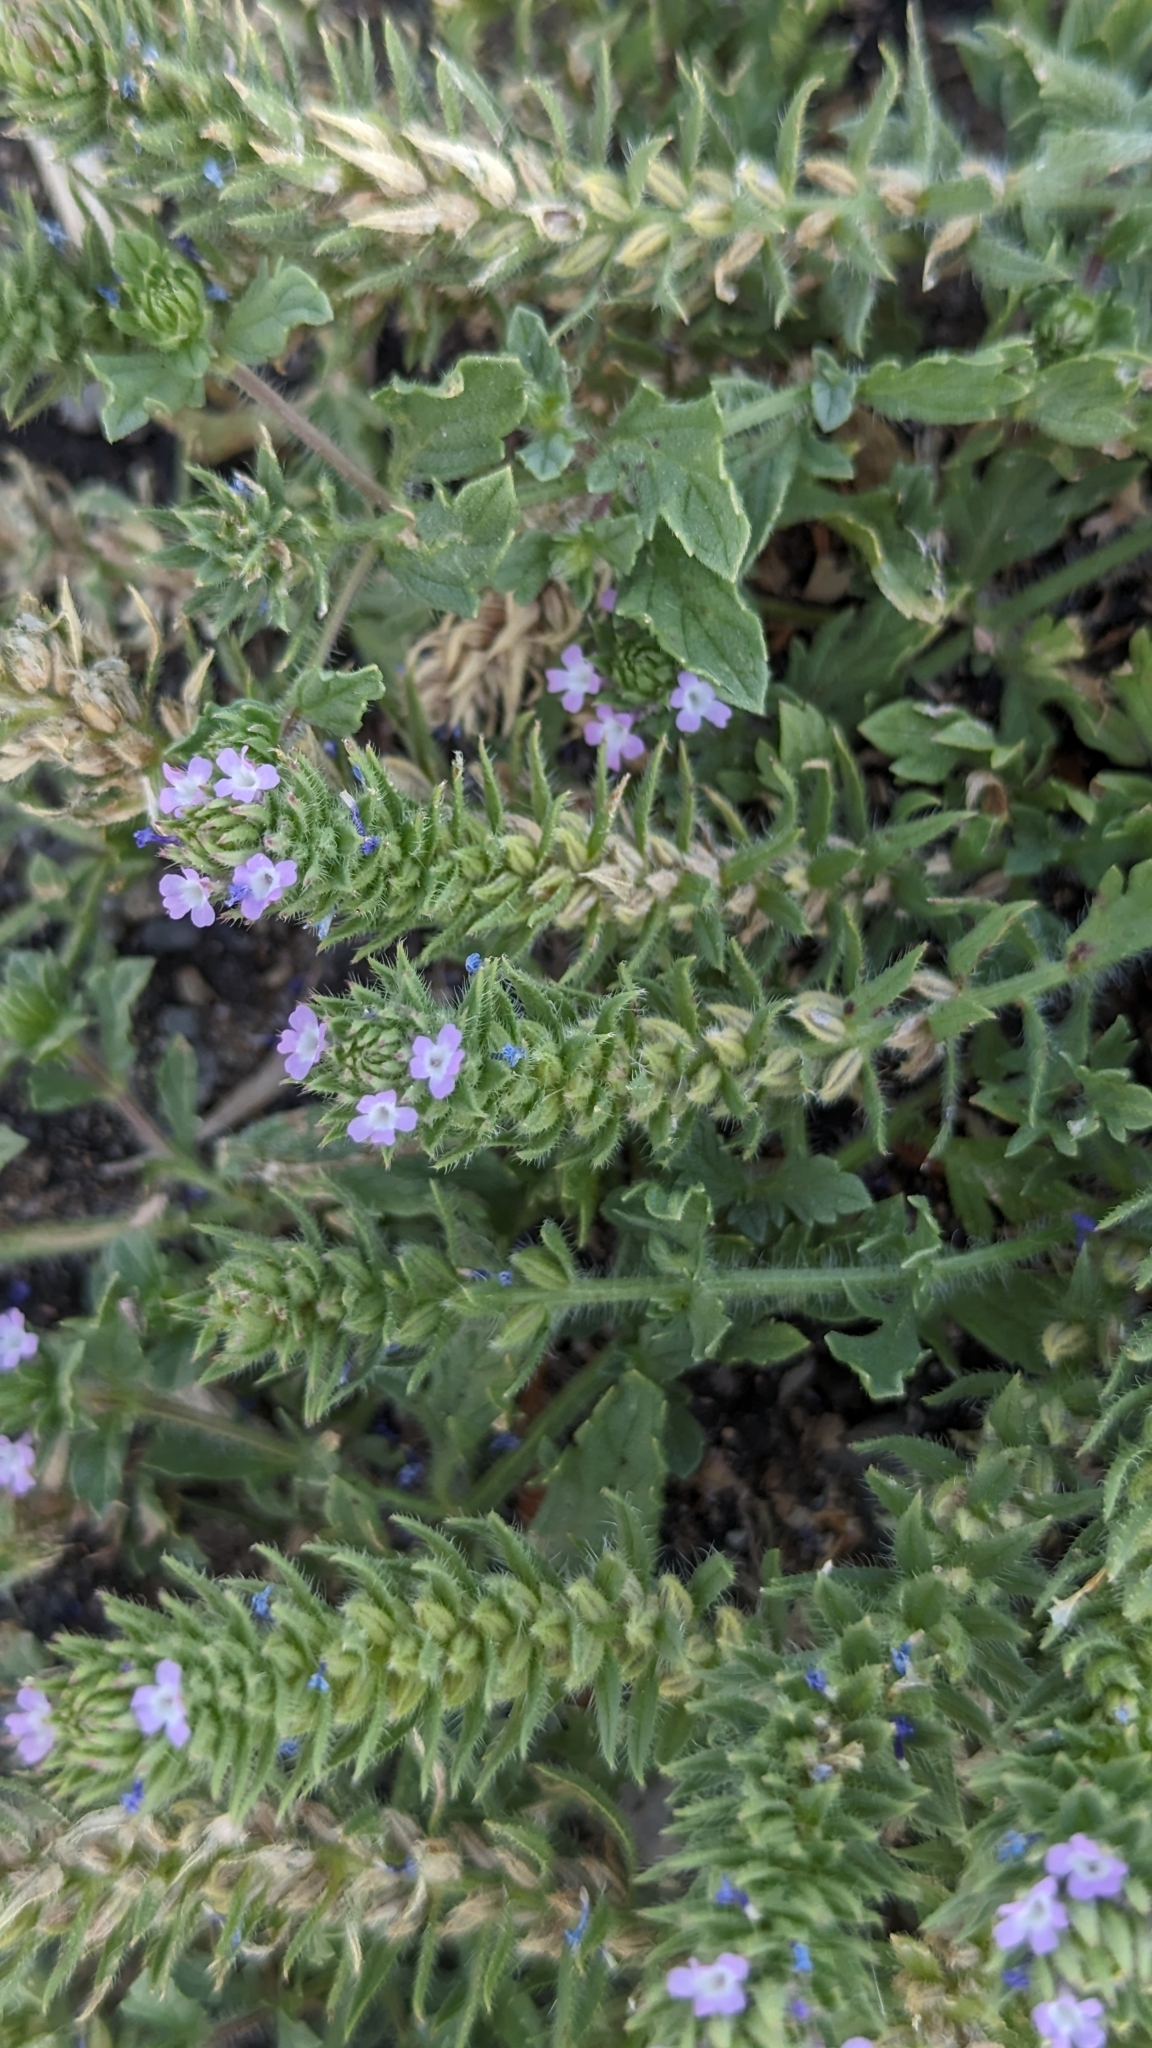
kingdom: Plantae
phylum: Tracheophyta
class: Magnoliopsida
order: Lamiales
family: Verbenaceae
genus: Verbena
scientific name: Verbena bracteata
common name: Bracted vervain
